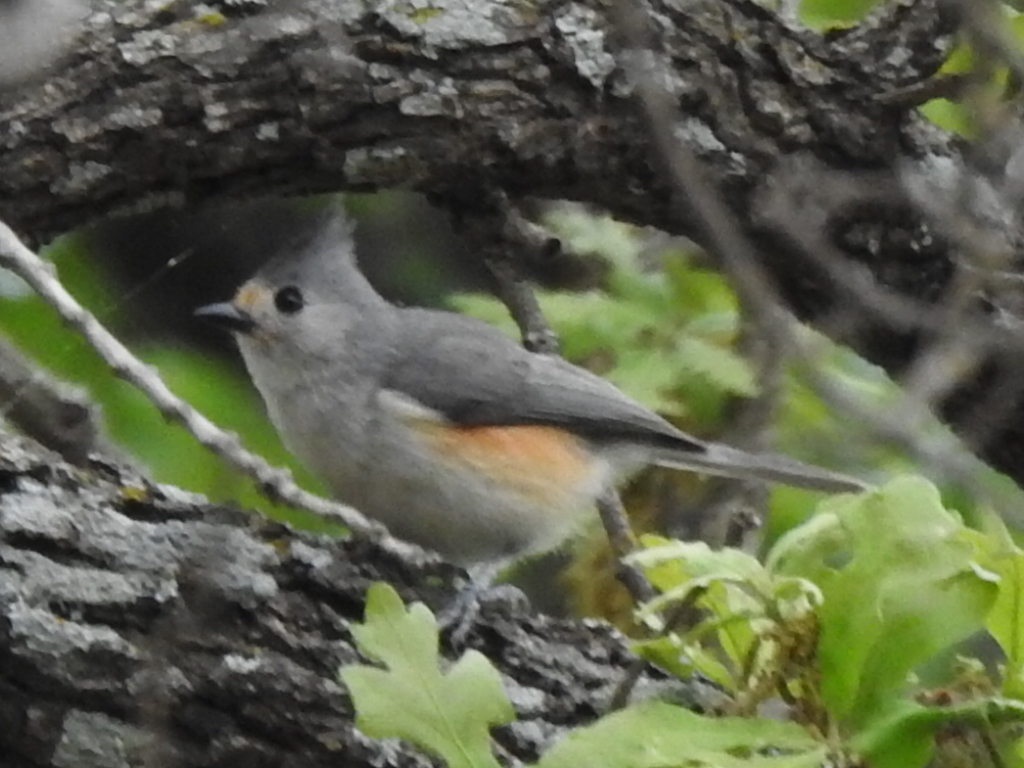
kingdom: Animalia
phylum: Chordata
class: Aves
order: Passeriformes
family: Paridae
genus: Baeolophus
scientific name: Baeolophus
